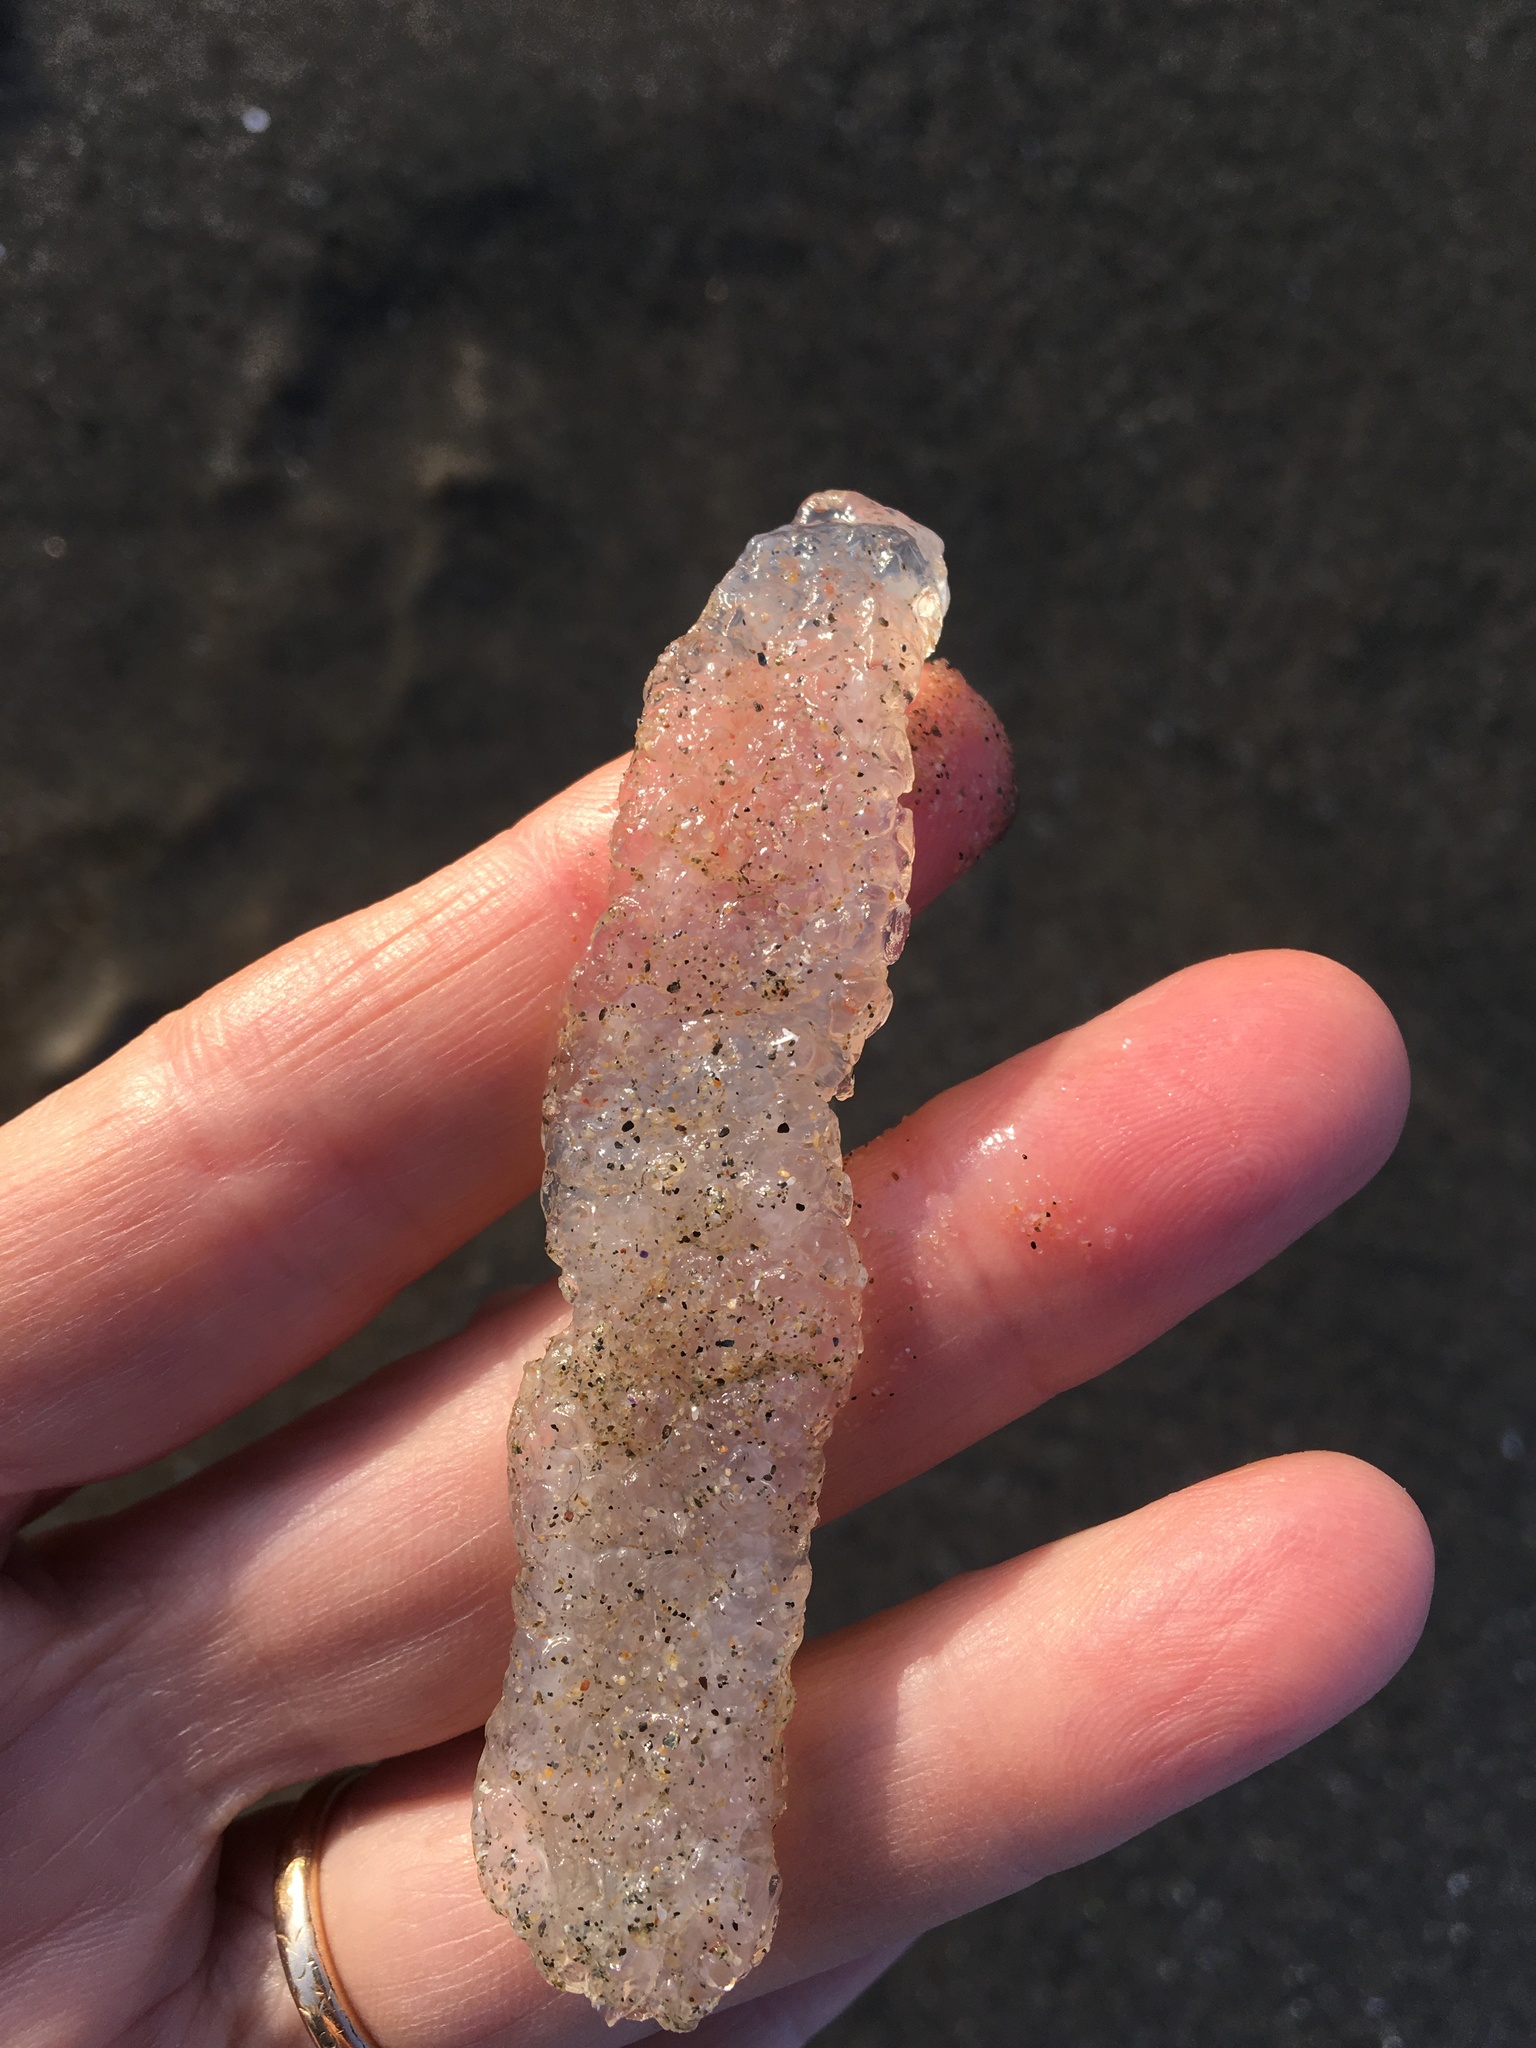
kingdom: Animalia
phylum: Chordata
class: Thaliacea
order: Pyrosomatida
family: Pyrosomatidae
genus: Pyrosoma
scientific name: Pyrosoma atlanticum
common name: Atlantic pyrosomes
